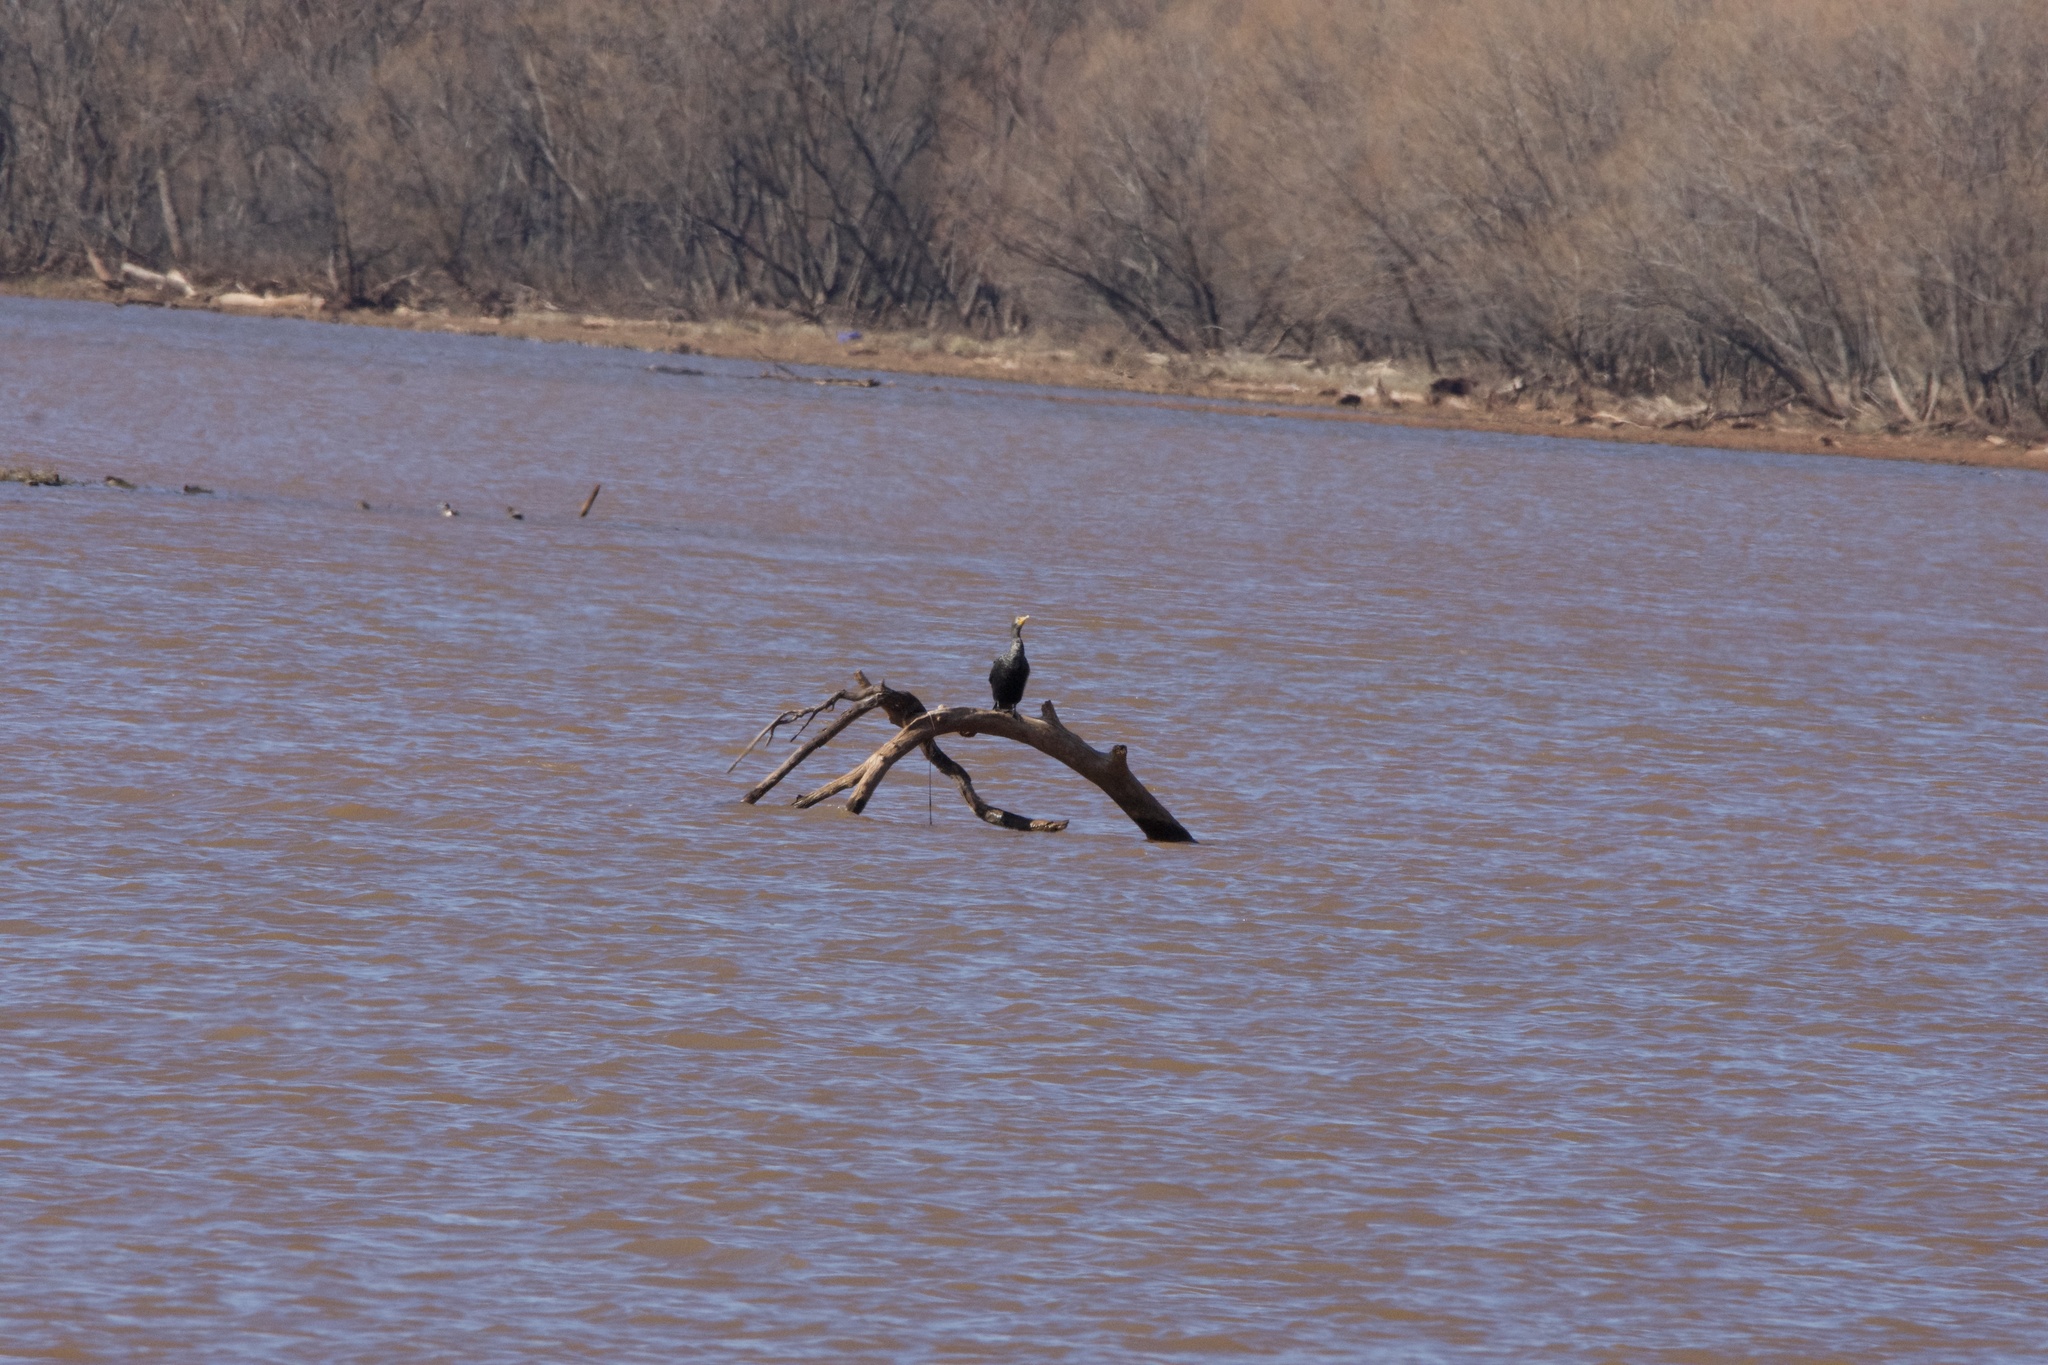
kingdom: Animalia
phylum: Chordata
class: Aves
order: Suliformes
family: Phalacrocoracidae
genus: Phalacrocorax
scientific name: Phalacrocorax auritus
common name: Double-crested cormorant
